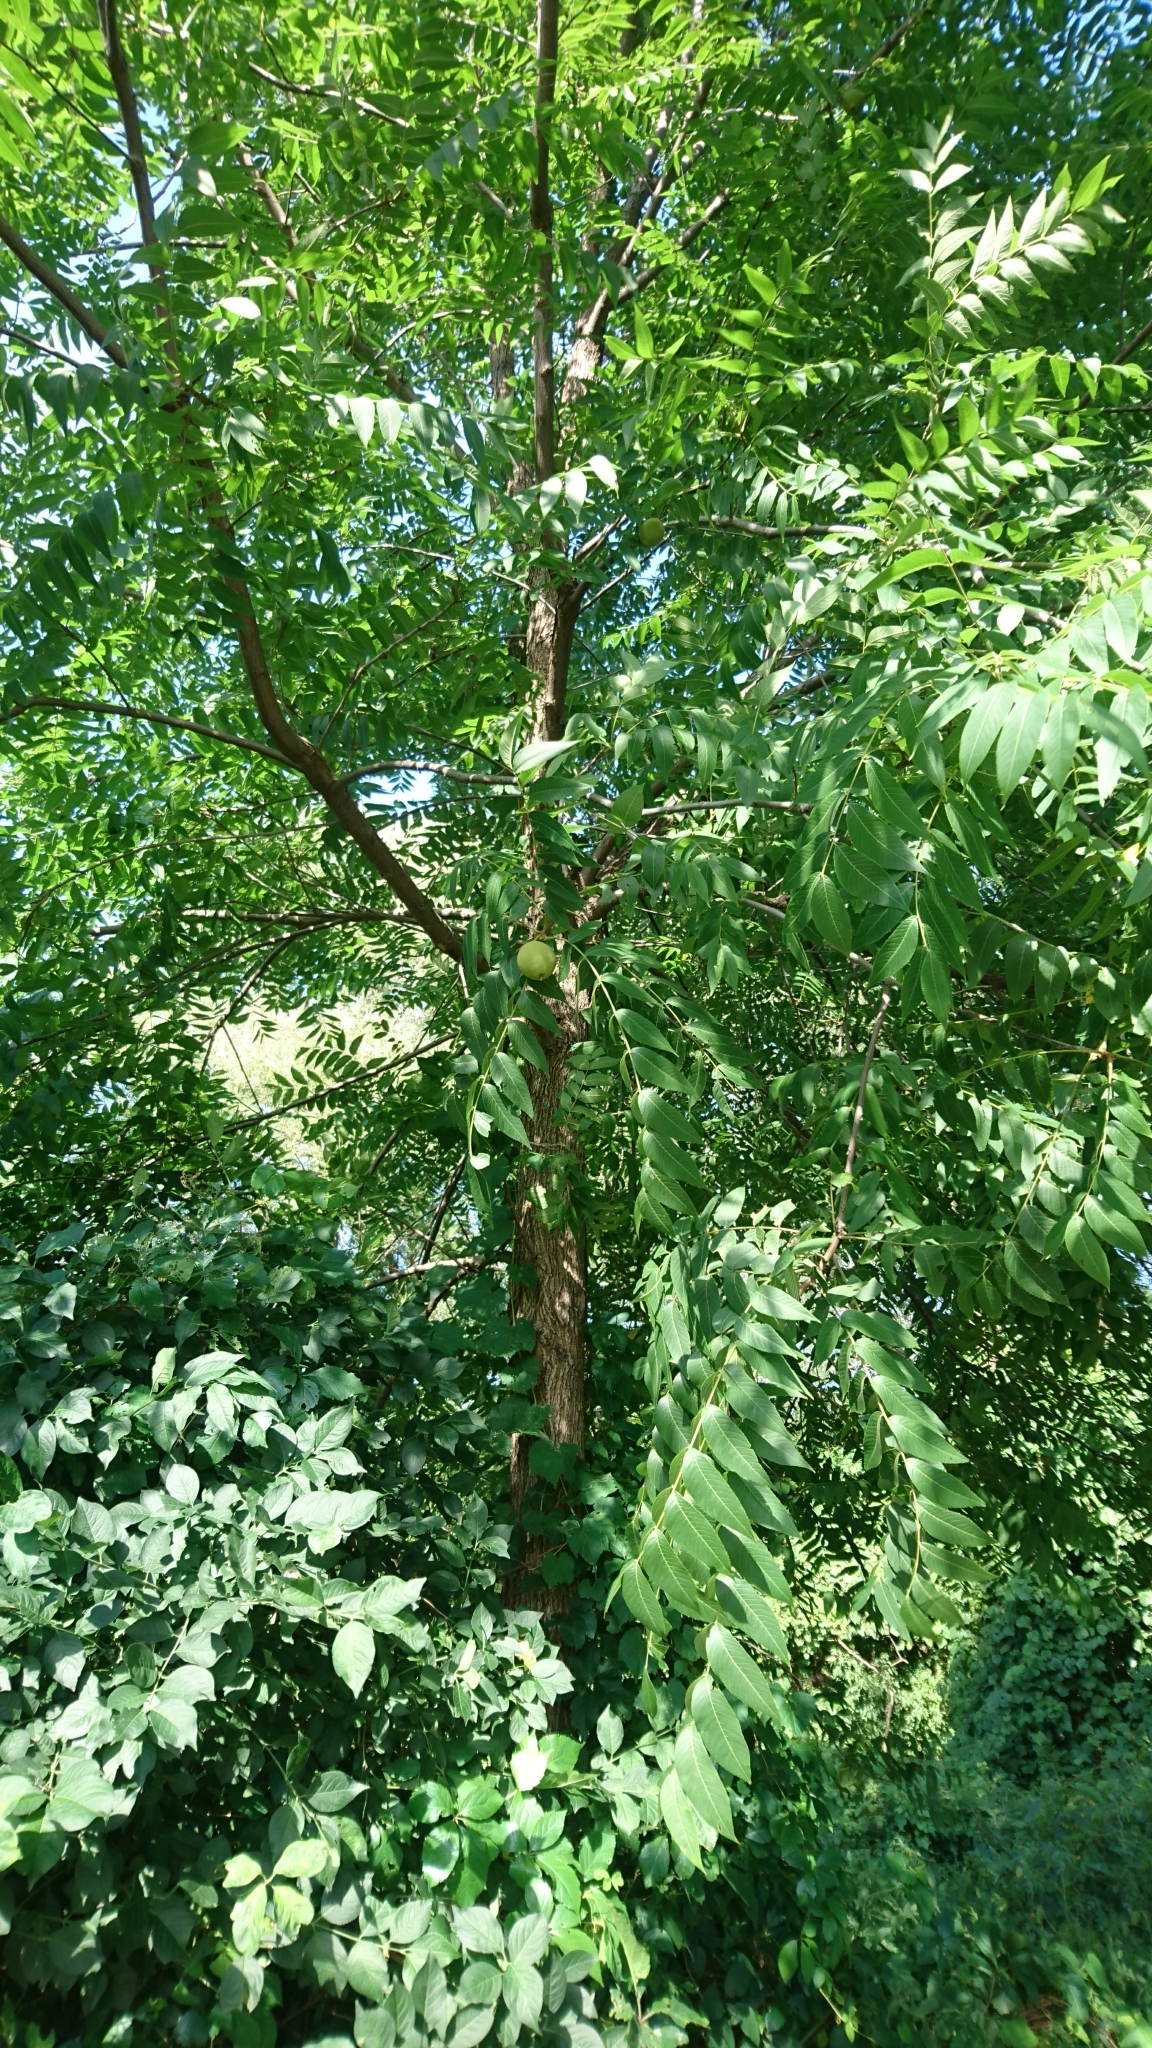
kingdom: Plantae
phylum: Tracheophyta
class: Magnoliopsida
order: Fagales
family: Juglandaceae
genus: Juglans
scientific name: Juglans nigra
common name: Black walnut
